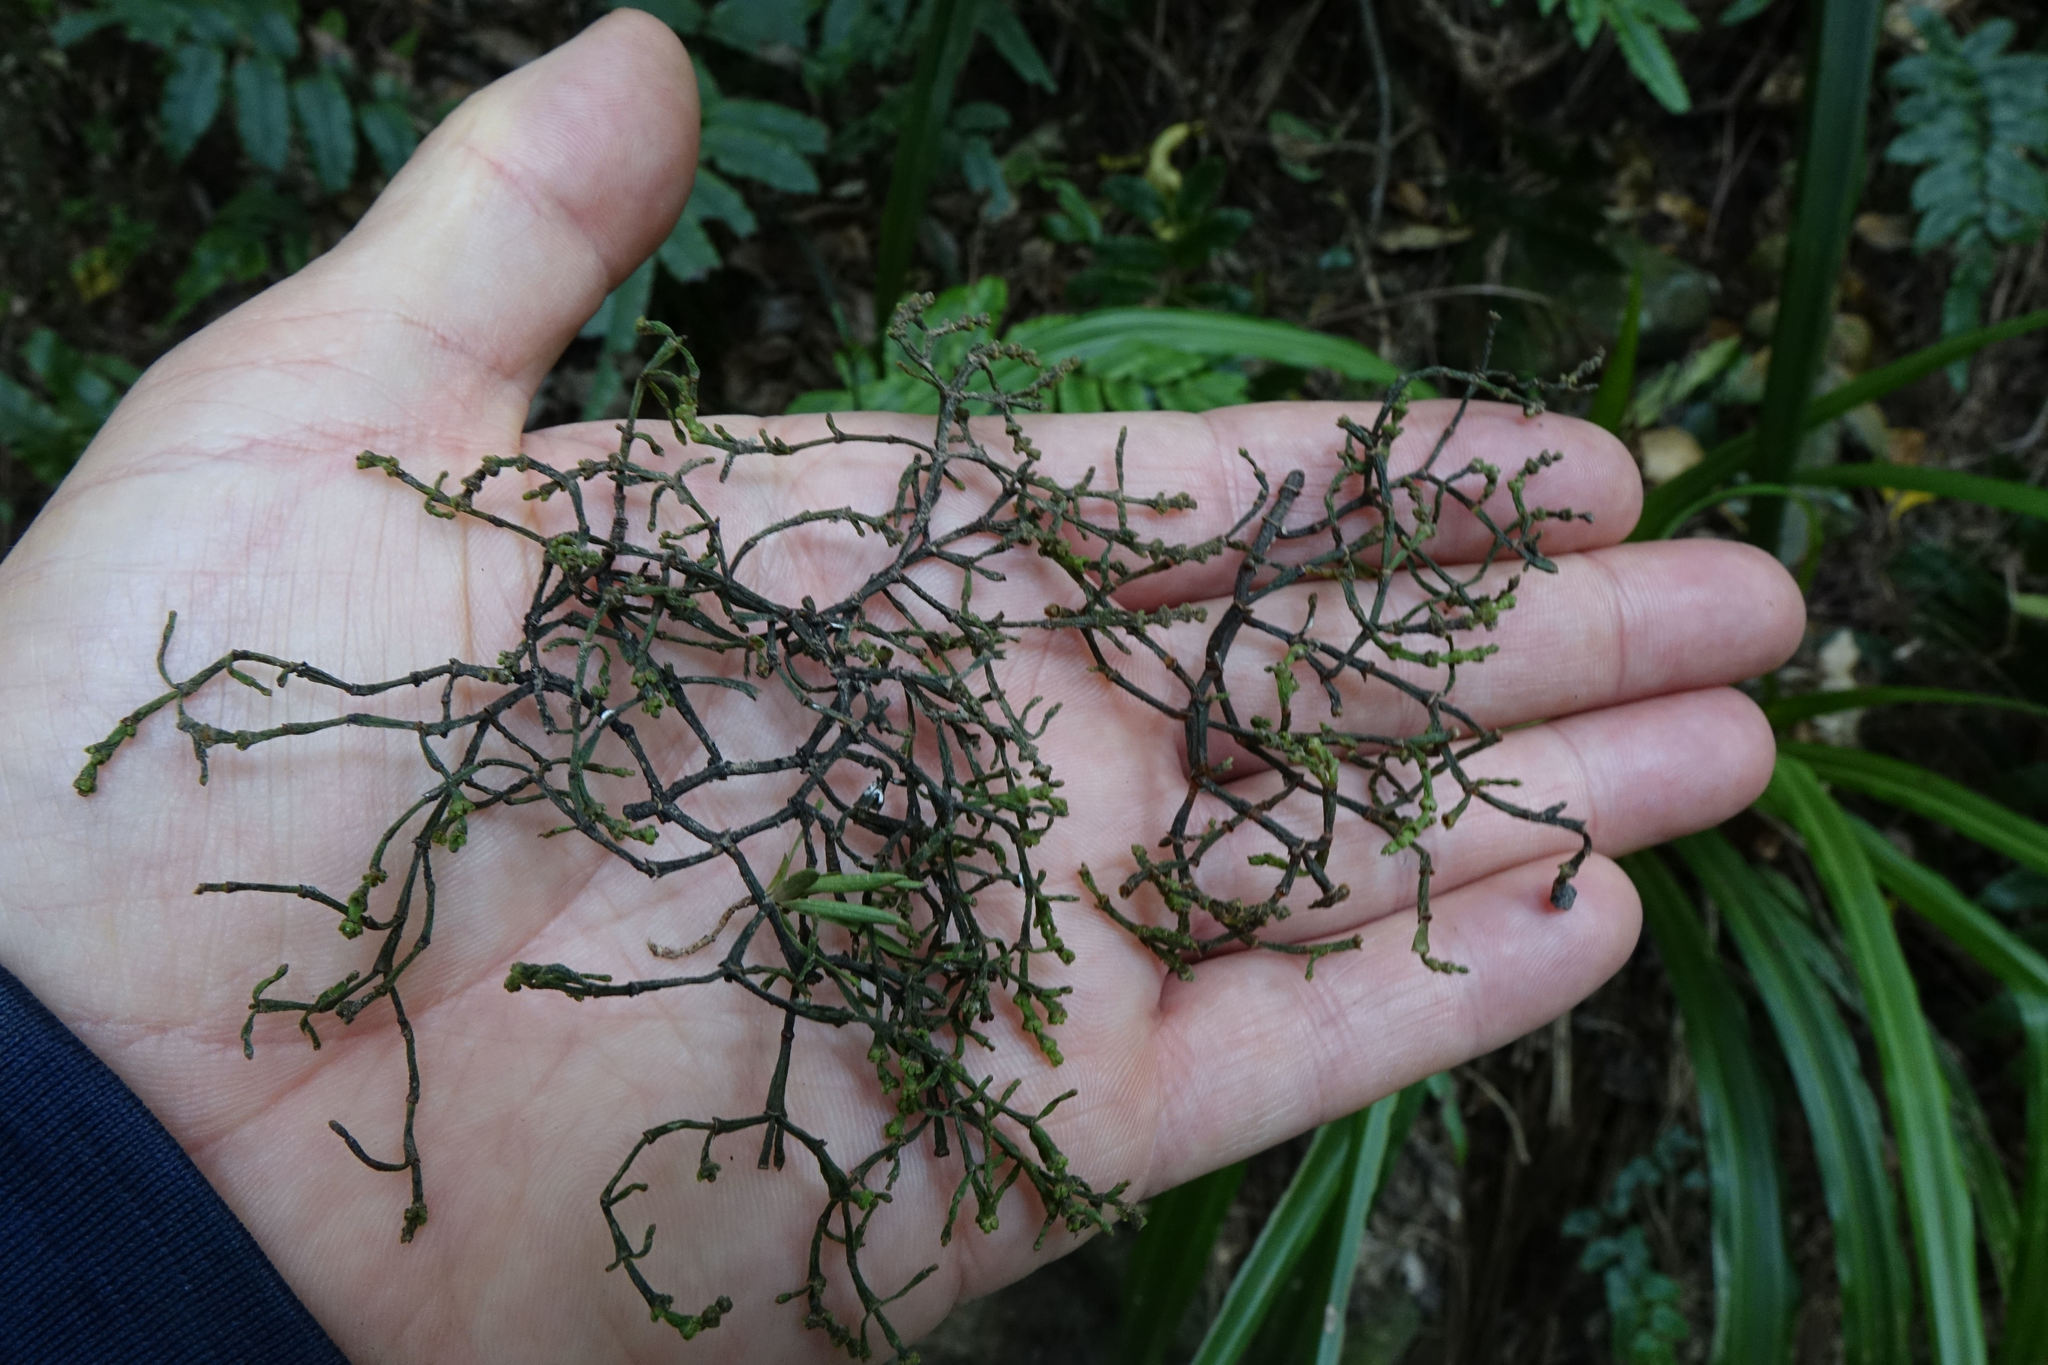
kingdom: Plantae
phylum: Tracheophyta
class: Magnoliopsida
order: Santalales
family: Viscaceae
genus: Korthalsella
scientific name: Korthalsella salicornioides
